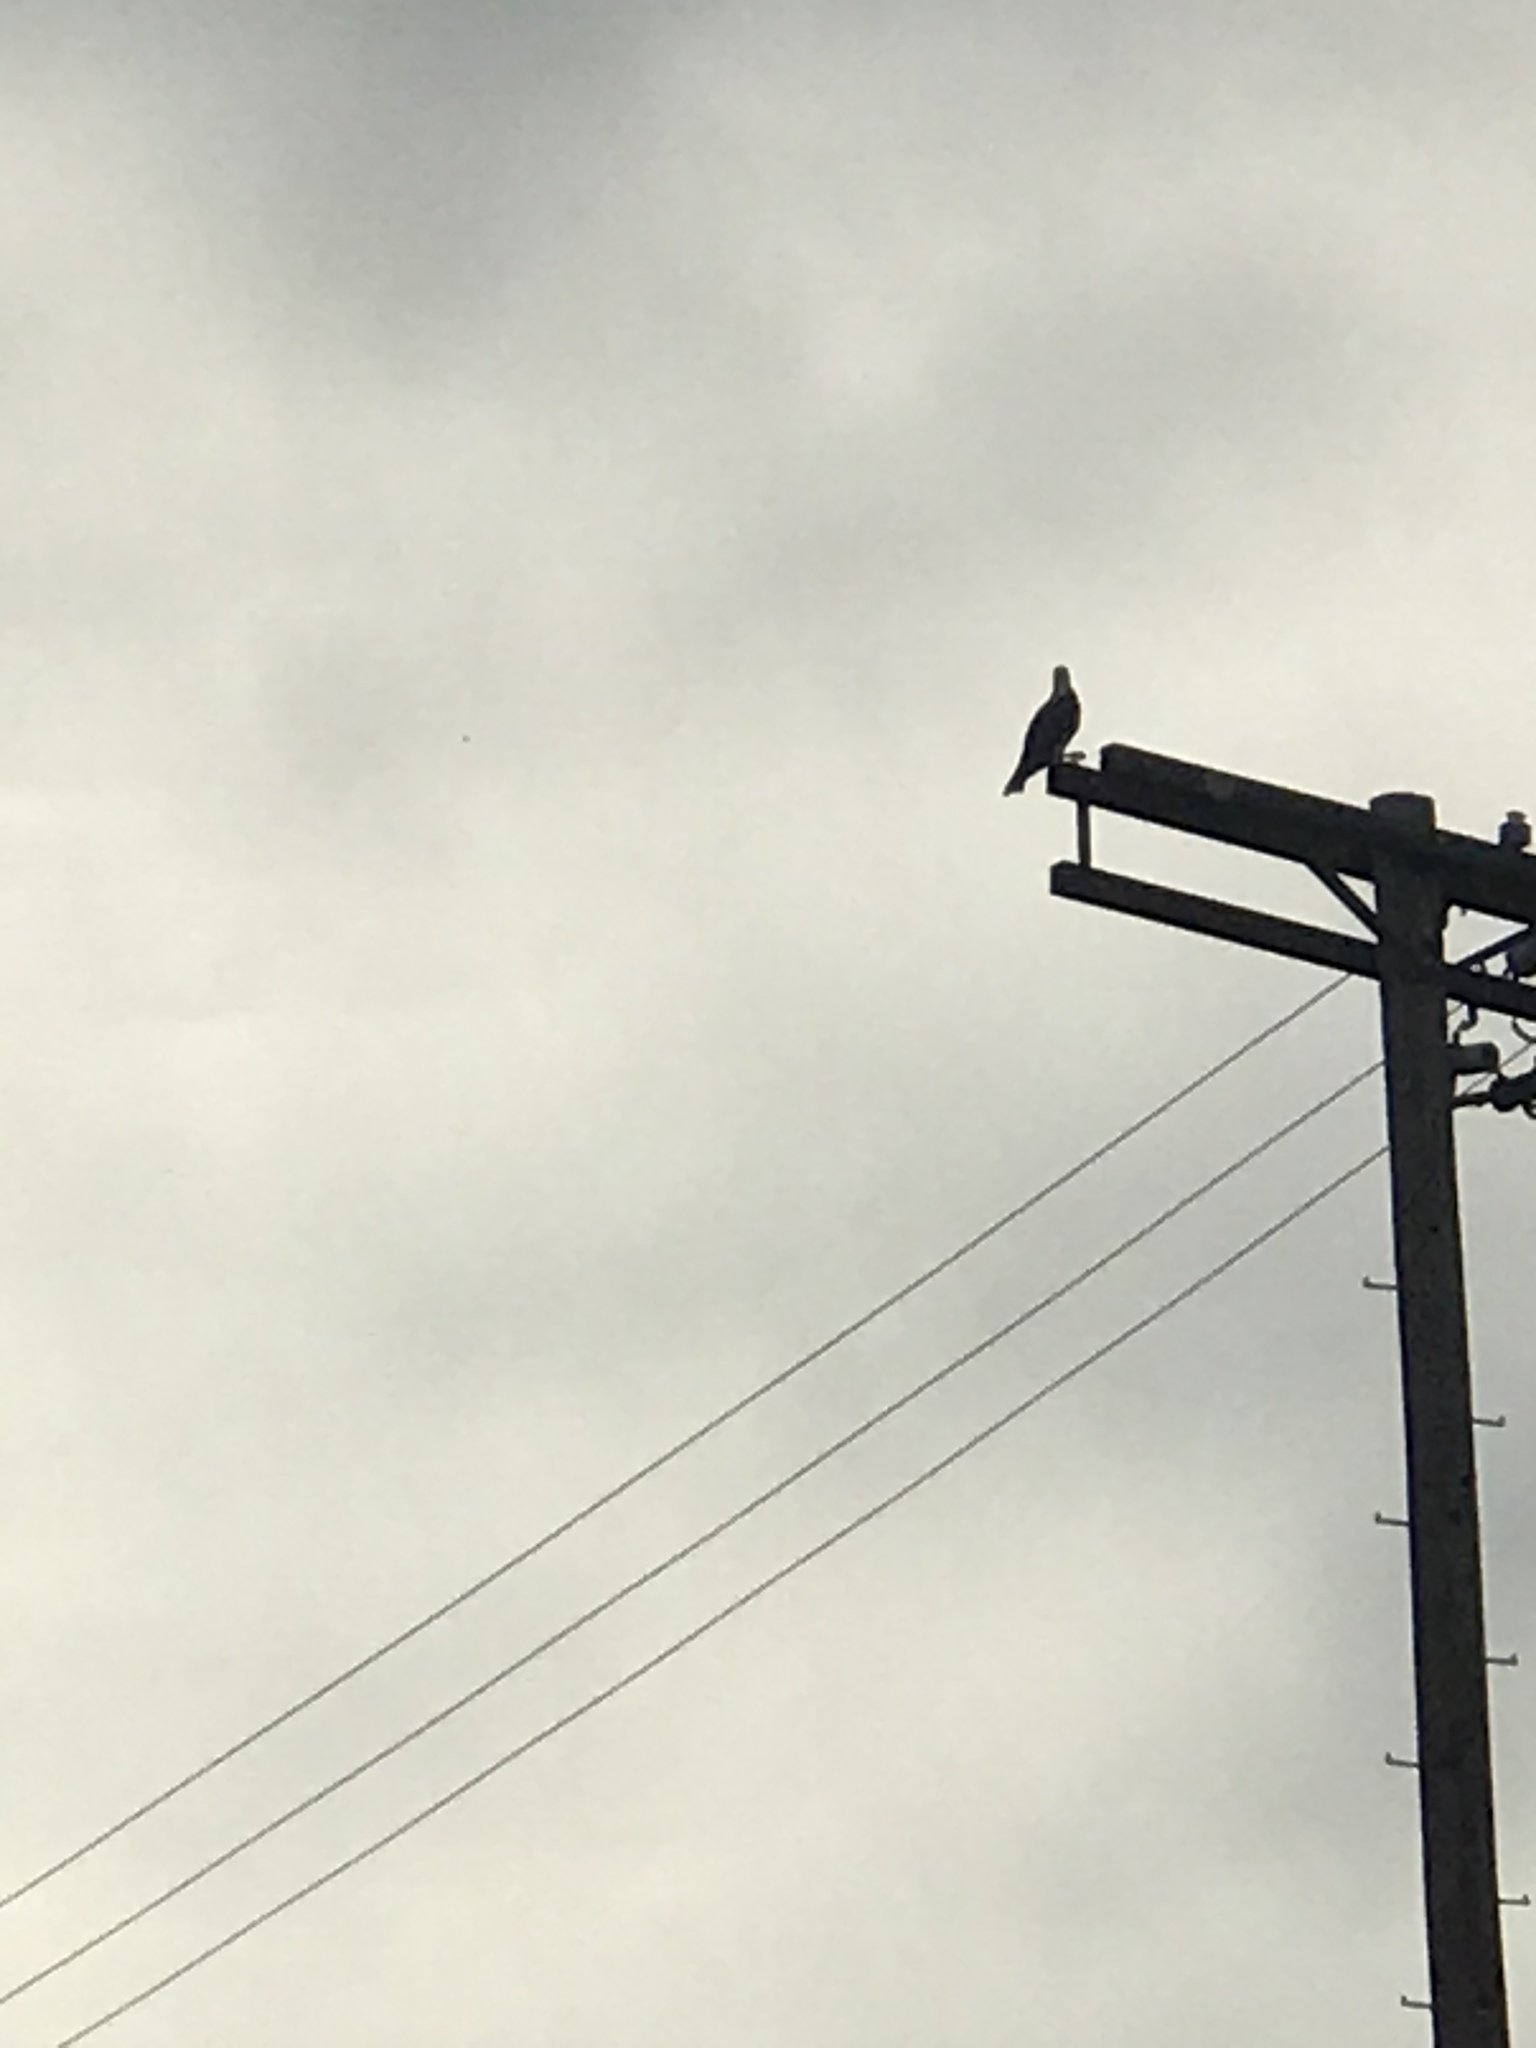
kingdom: Animalia
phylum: Chordata
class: Aves
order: Accipitriformes
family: Pandionidae
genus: Pandion
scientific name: Pandion haliaetus
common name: Osprey
